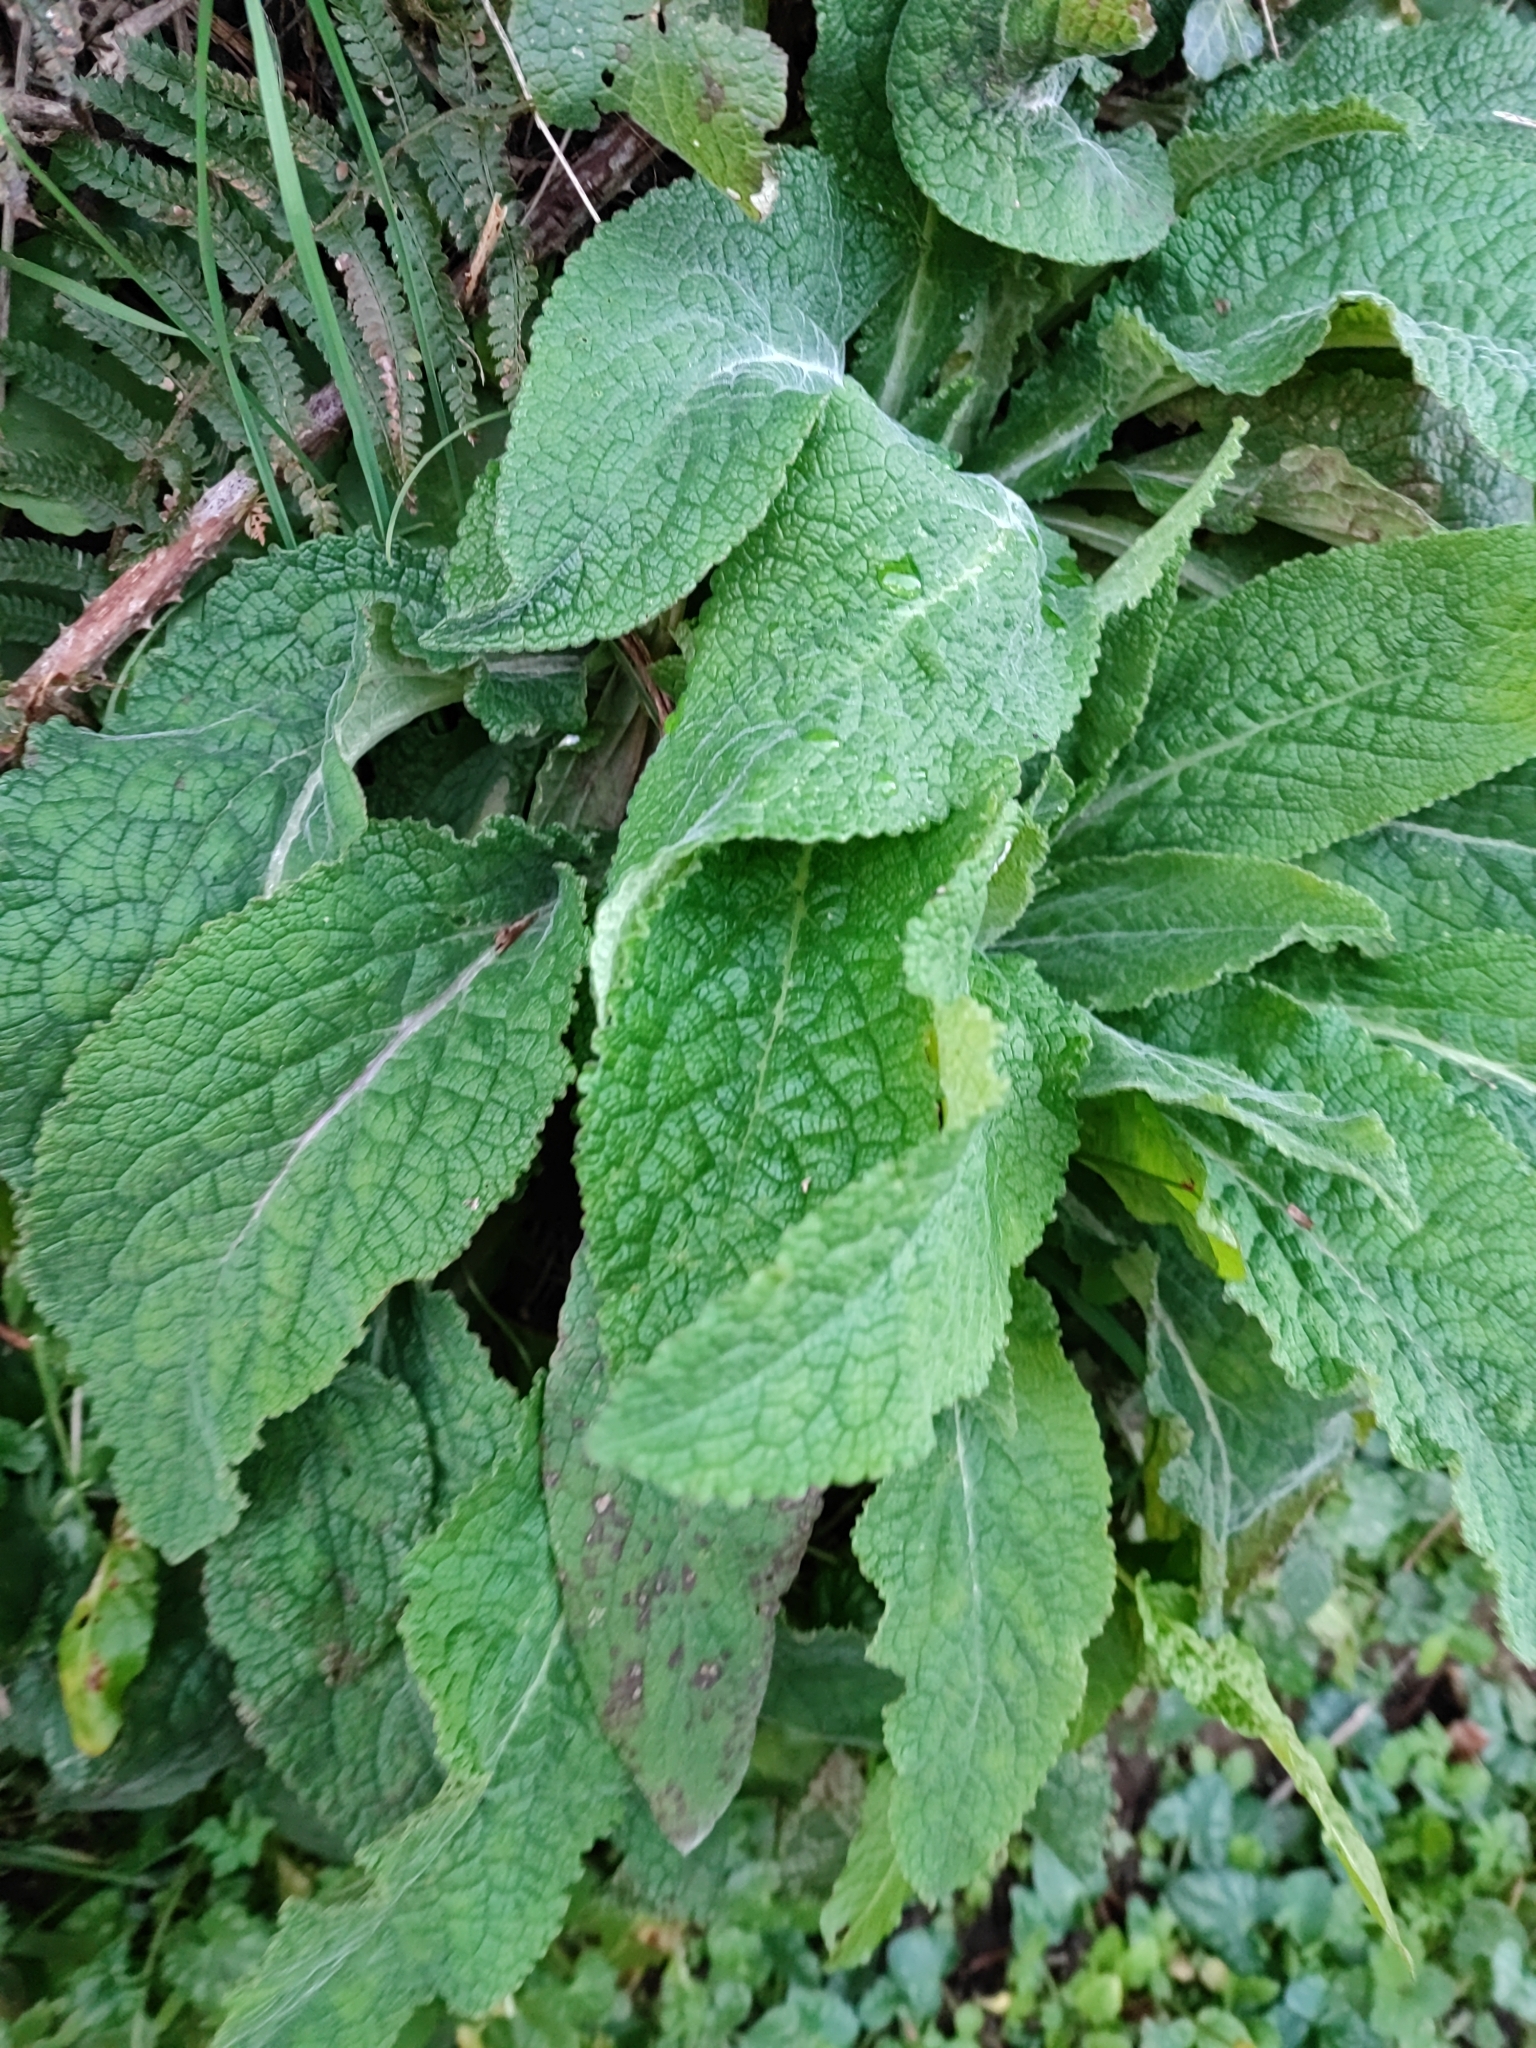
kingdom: Plantae
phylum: Tracheophyta
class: Magnoliopsida
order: Lamiales
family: Plantaginaceae
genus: Digitalis
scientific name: Digitalis purpurea
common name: Foxglove
